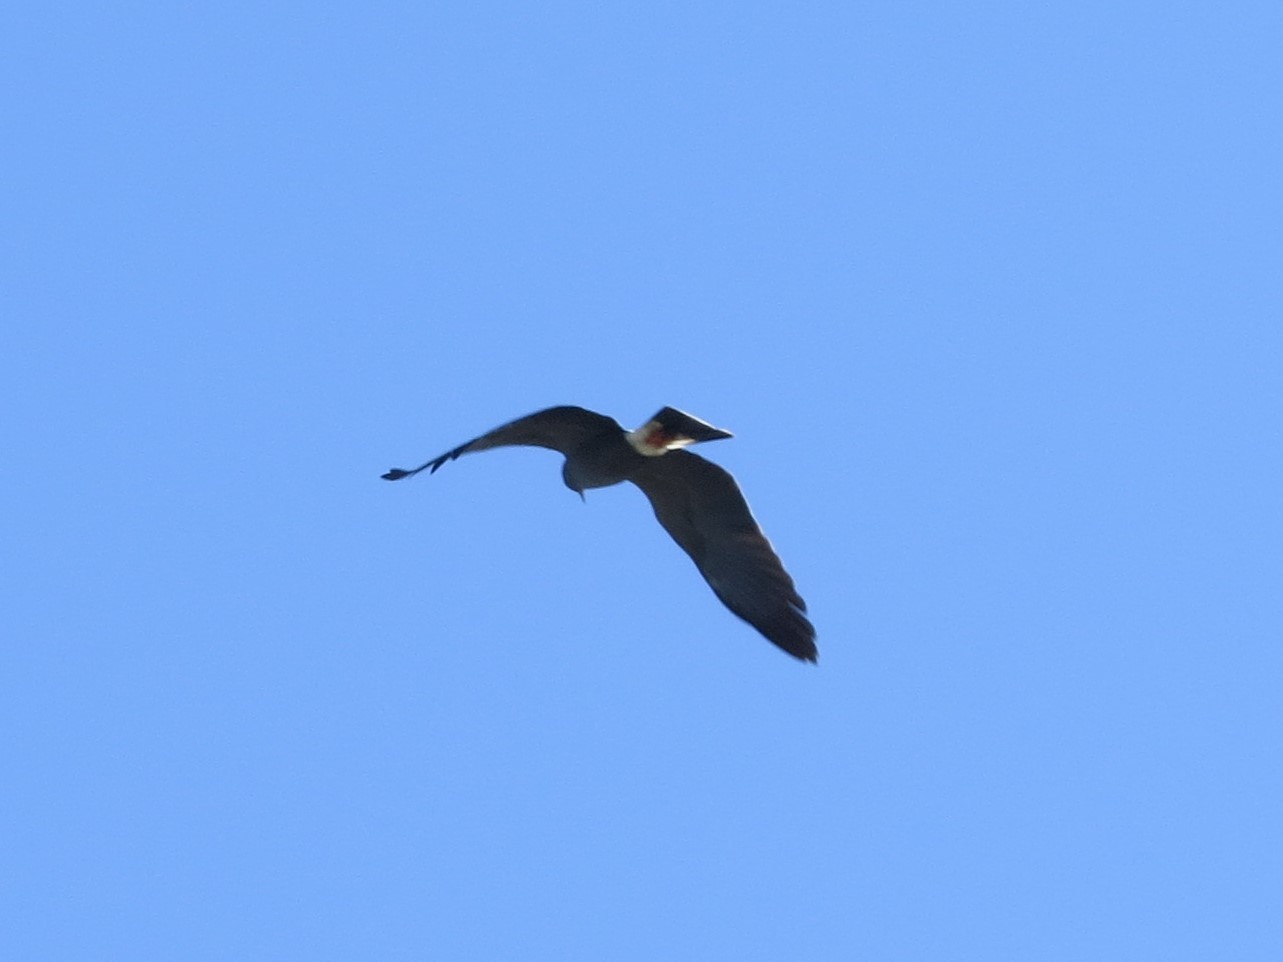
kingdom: Animalia
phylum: Chordata
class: Aves
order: Accipitriformes
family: Accipitridae
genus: Rostrhamus
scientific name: Rostrhamus sociabilis
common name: Snail kite
